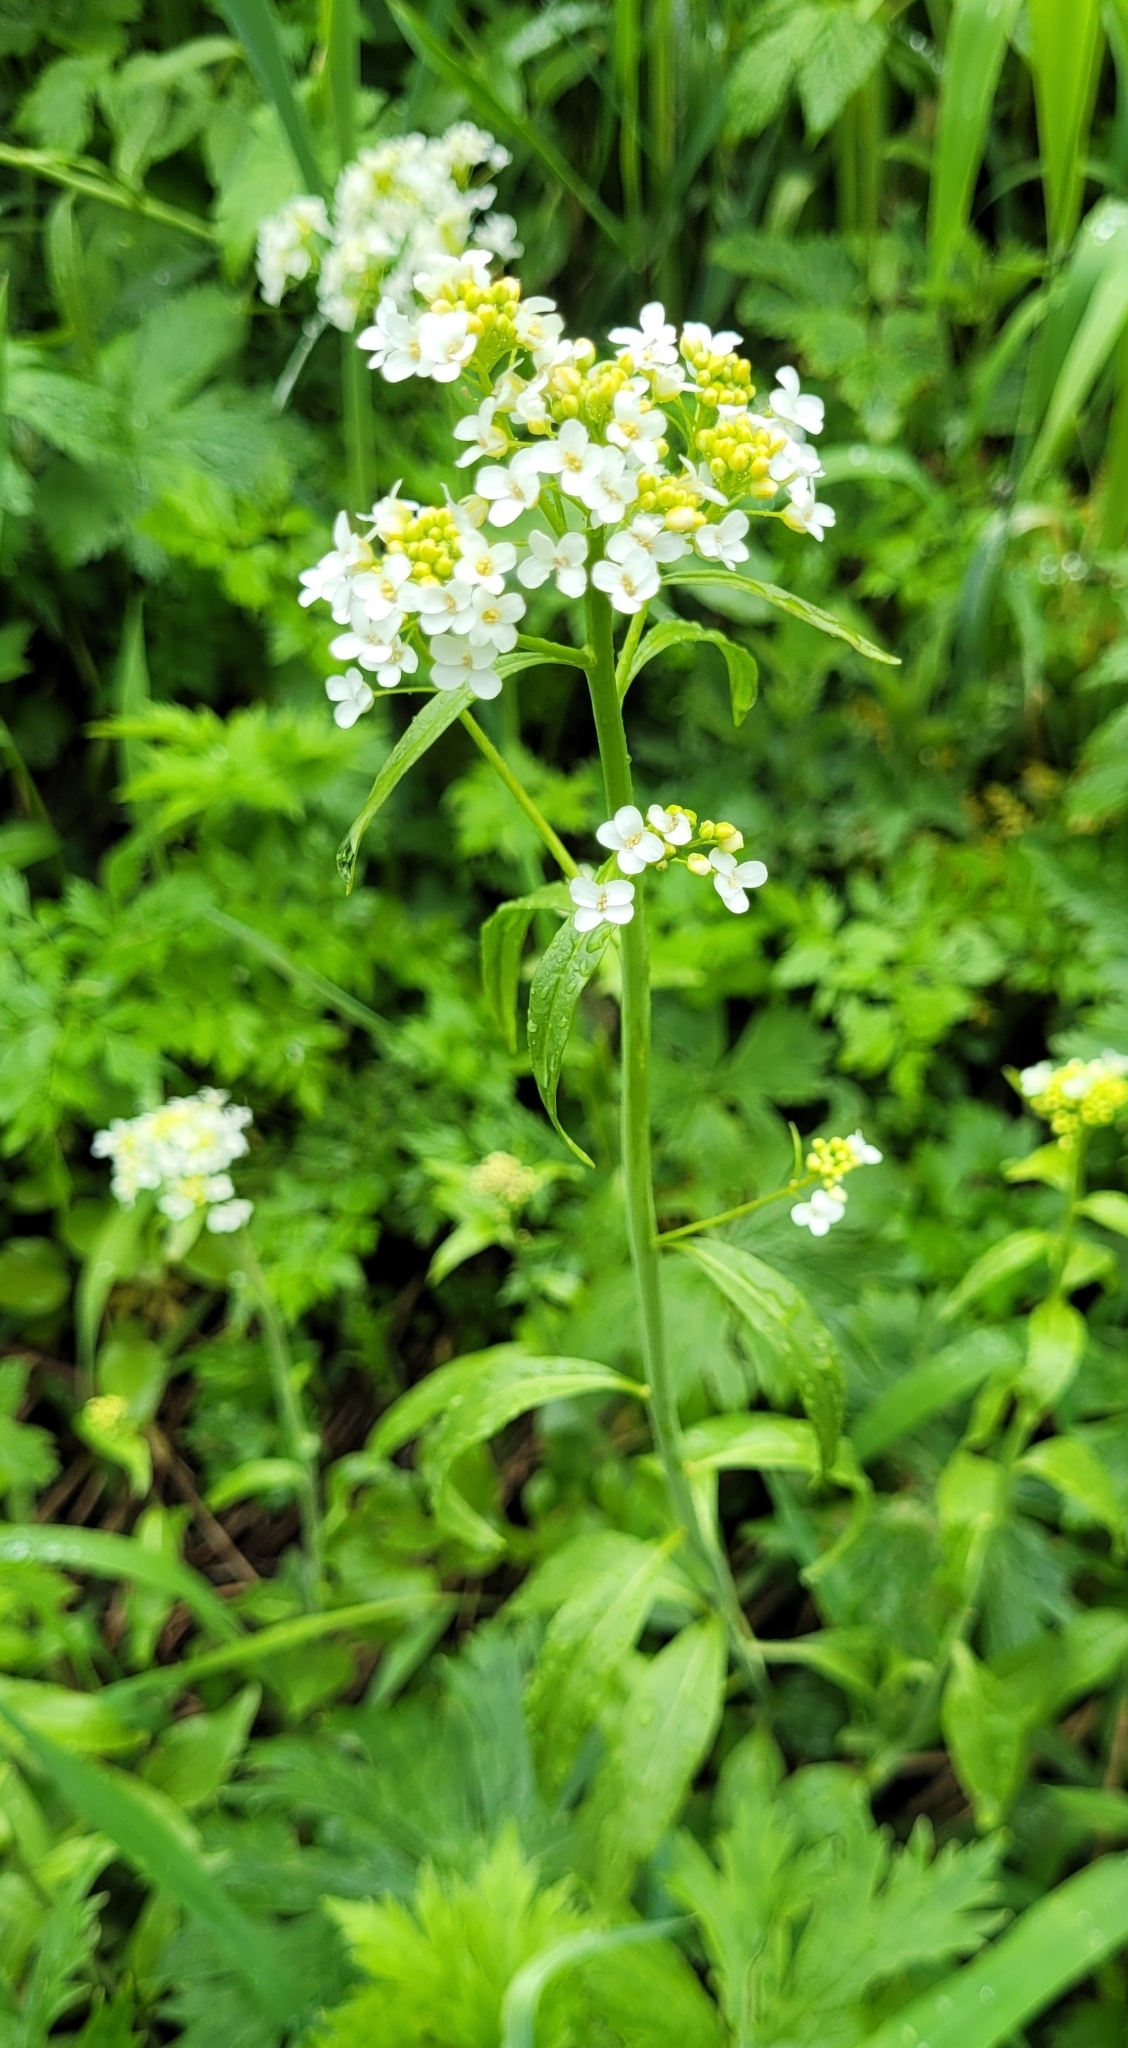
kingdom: Plantae
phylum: Tracheophyta
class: Magnoliopsida
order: Brassicales
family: Brassicaceae
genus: Eutrema
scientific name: Eutrema integrifolium
